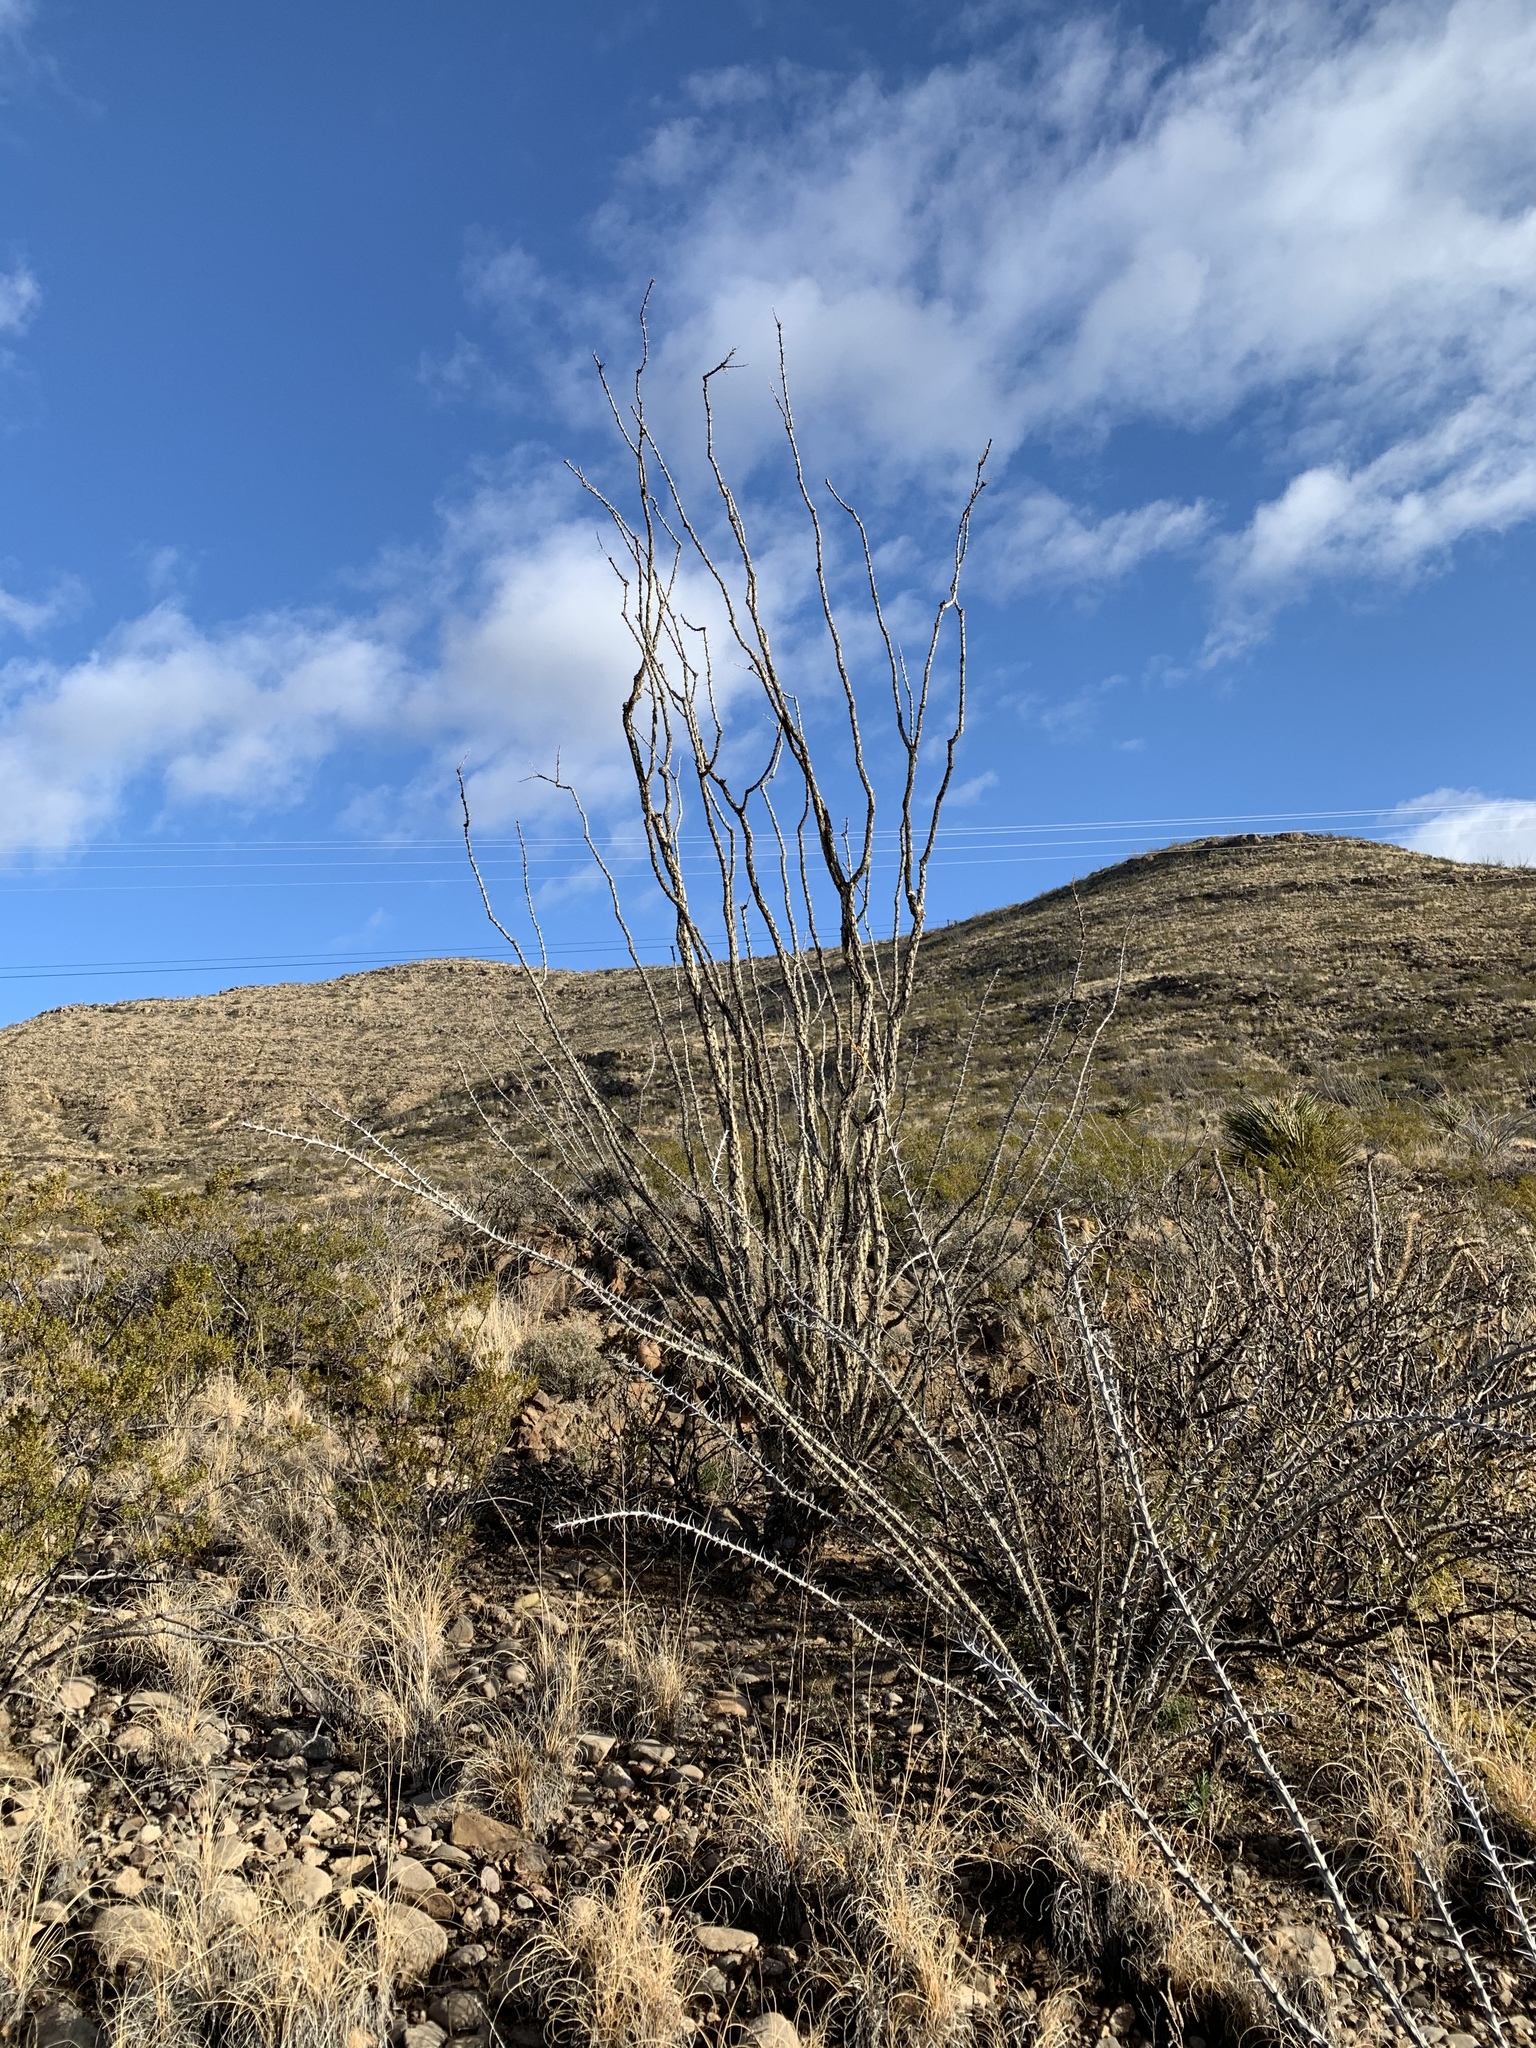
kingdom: Plantae
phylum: Tracheophyta
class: Magnoliopsida
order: Ericales
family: Fouquieriaceae
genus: Fouquieria
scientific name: Fouquieria splendens
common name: Vine-cactus
